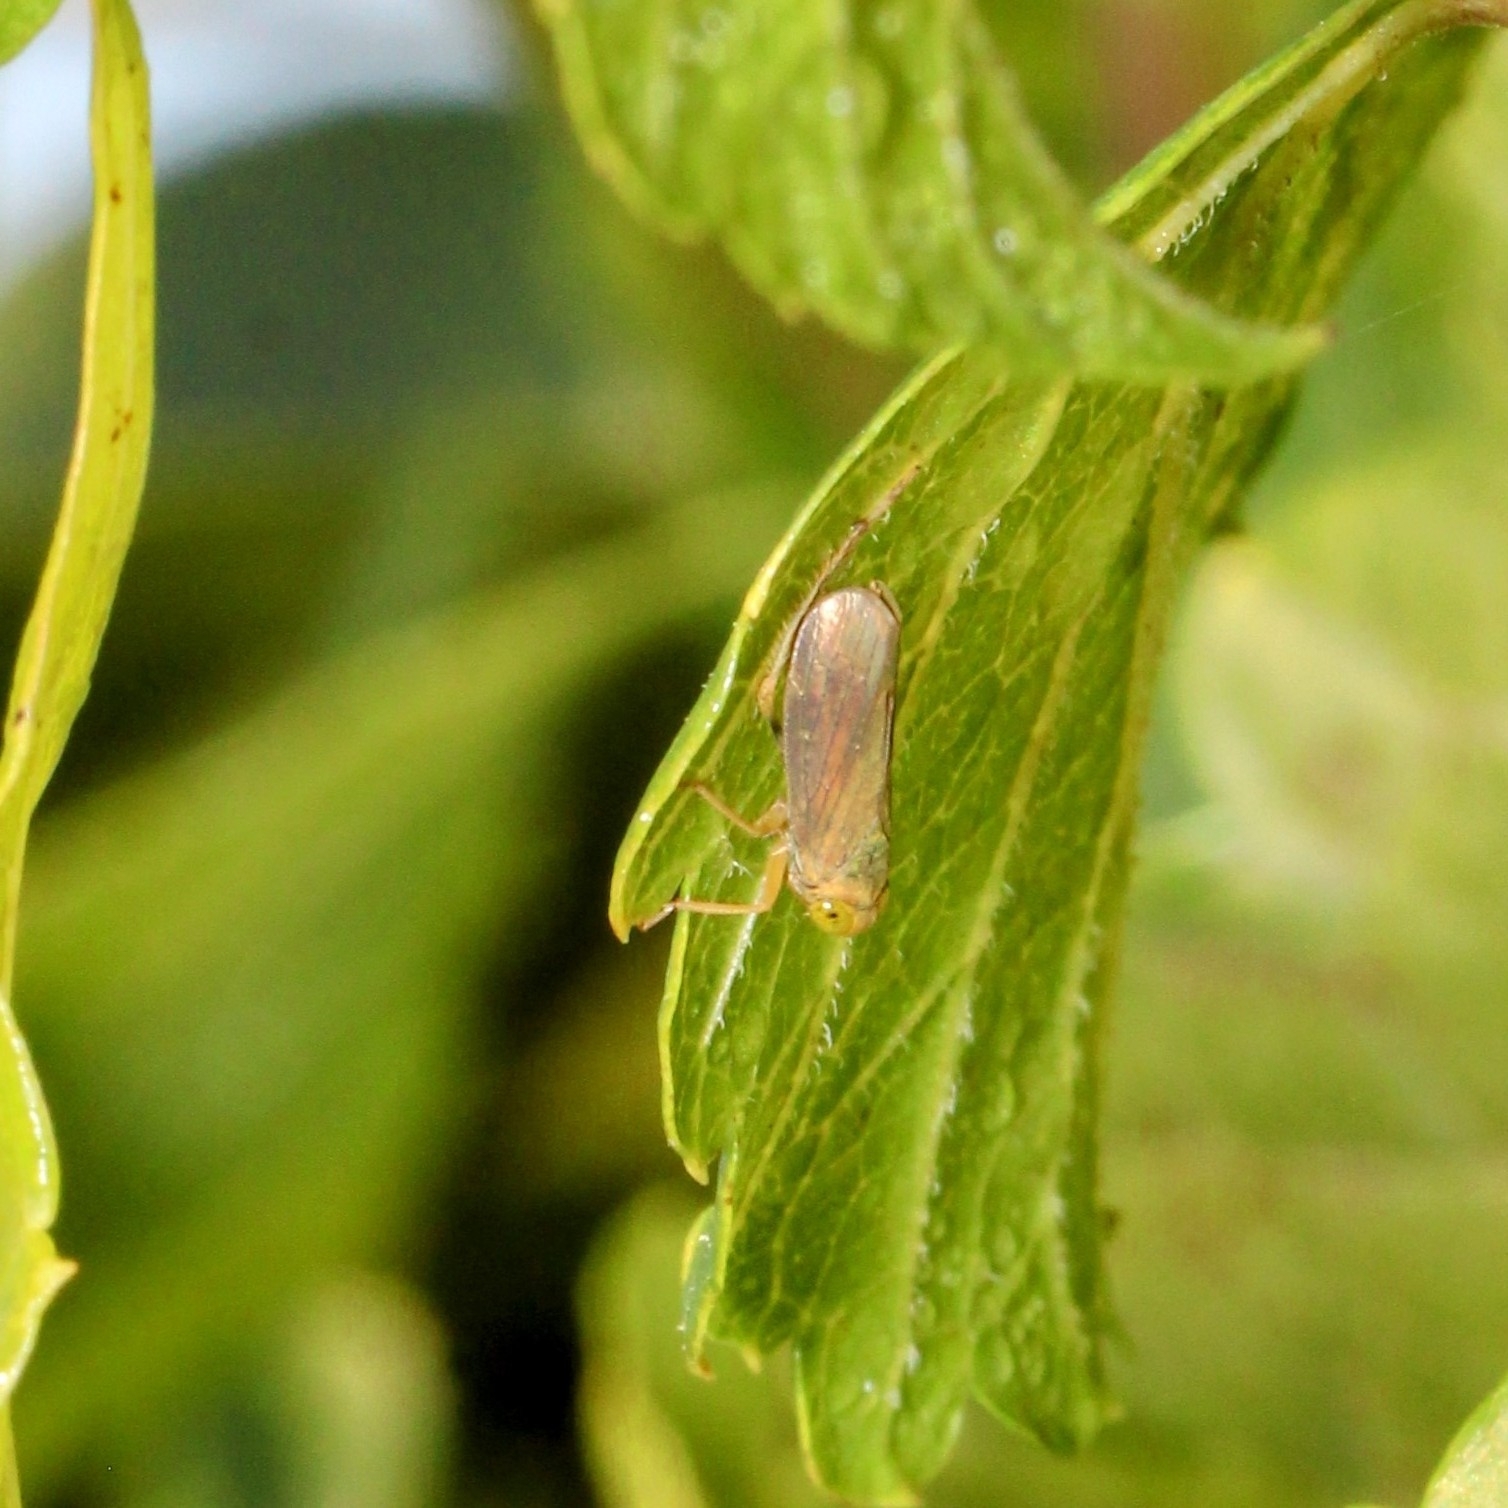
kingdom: Animalia
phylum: Arthropoda
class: Insecta
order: Hemiptera
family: Cicadellidae
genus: Jikradia
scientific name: Jikradia olitoria
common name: Coppery leafhopper
